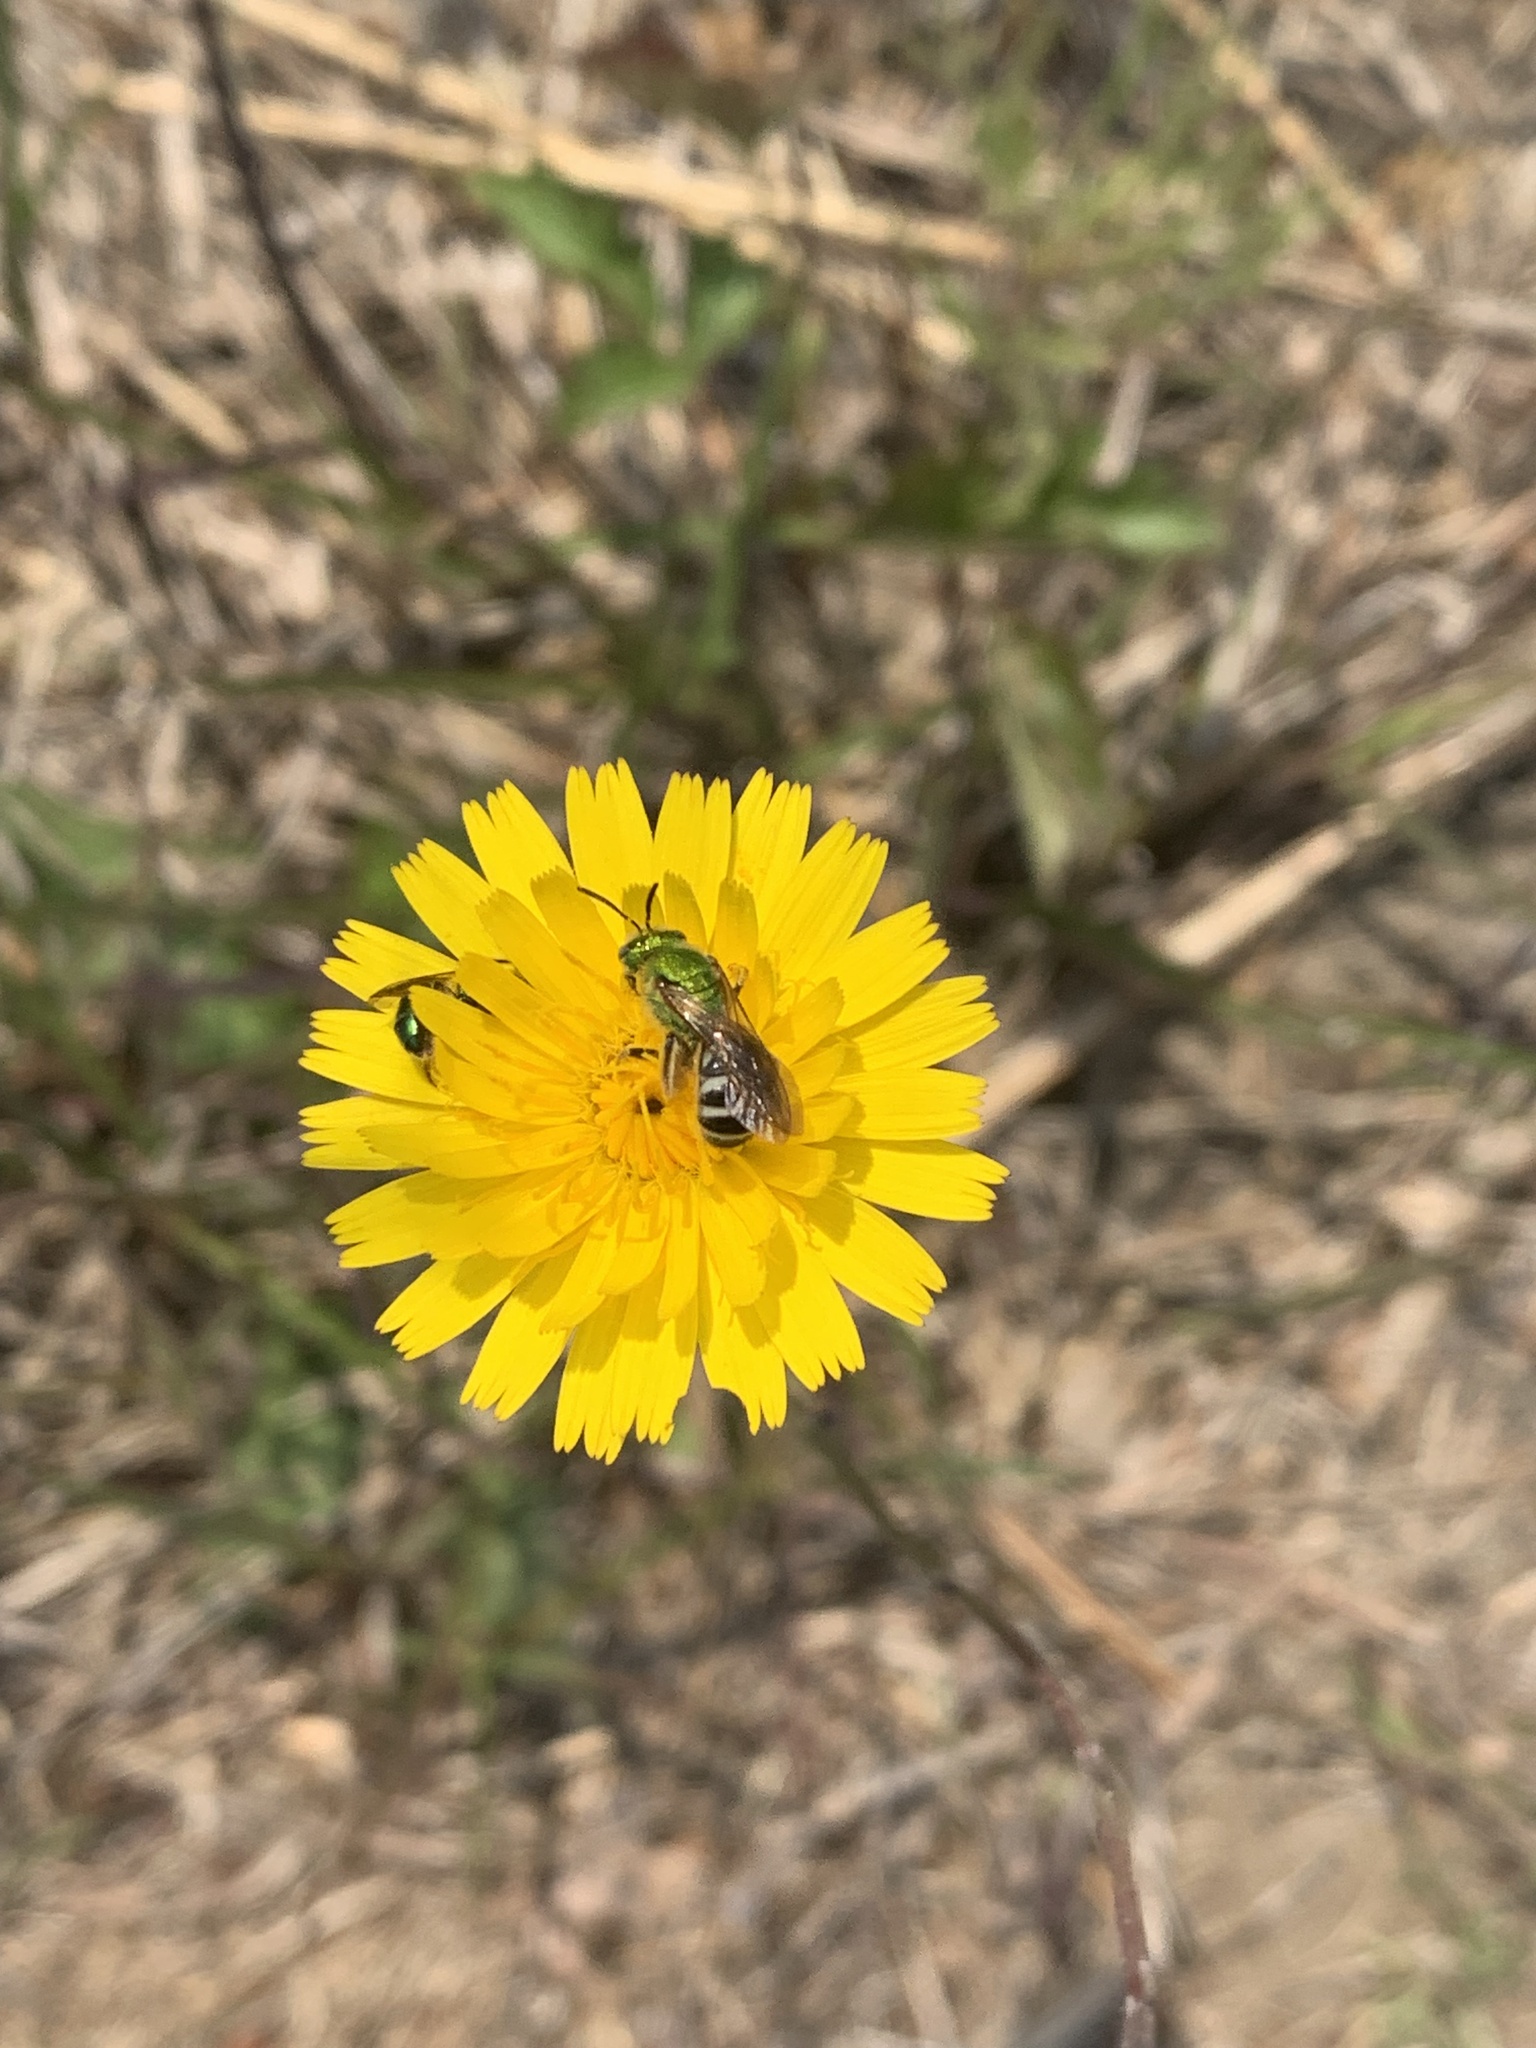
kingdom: Animalia
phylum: Arthropoda
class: Insecta
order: Hymenoptera
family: Halictidae
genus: Agapostemon
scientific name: Agapostemon virescens
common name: Bicolored striped sweat bee
